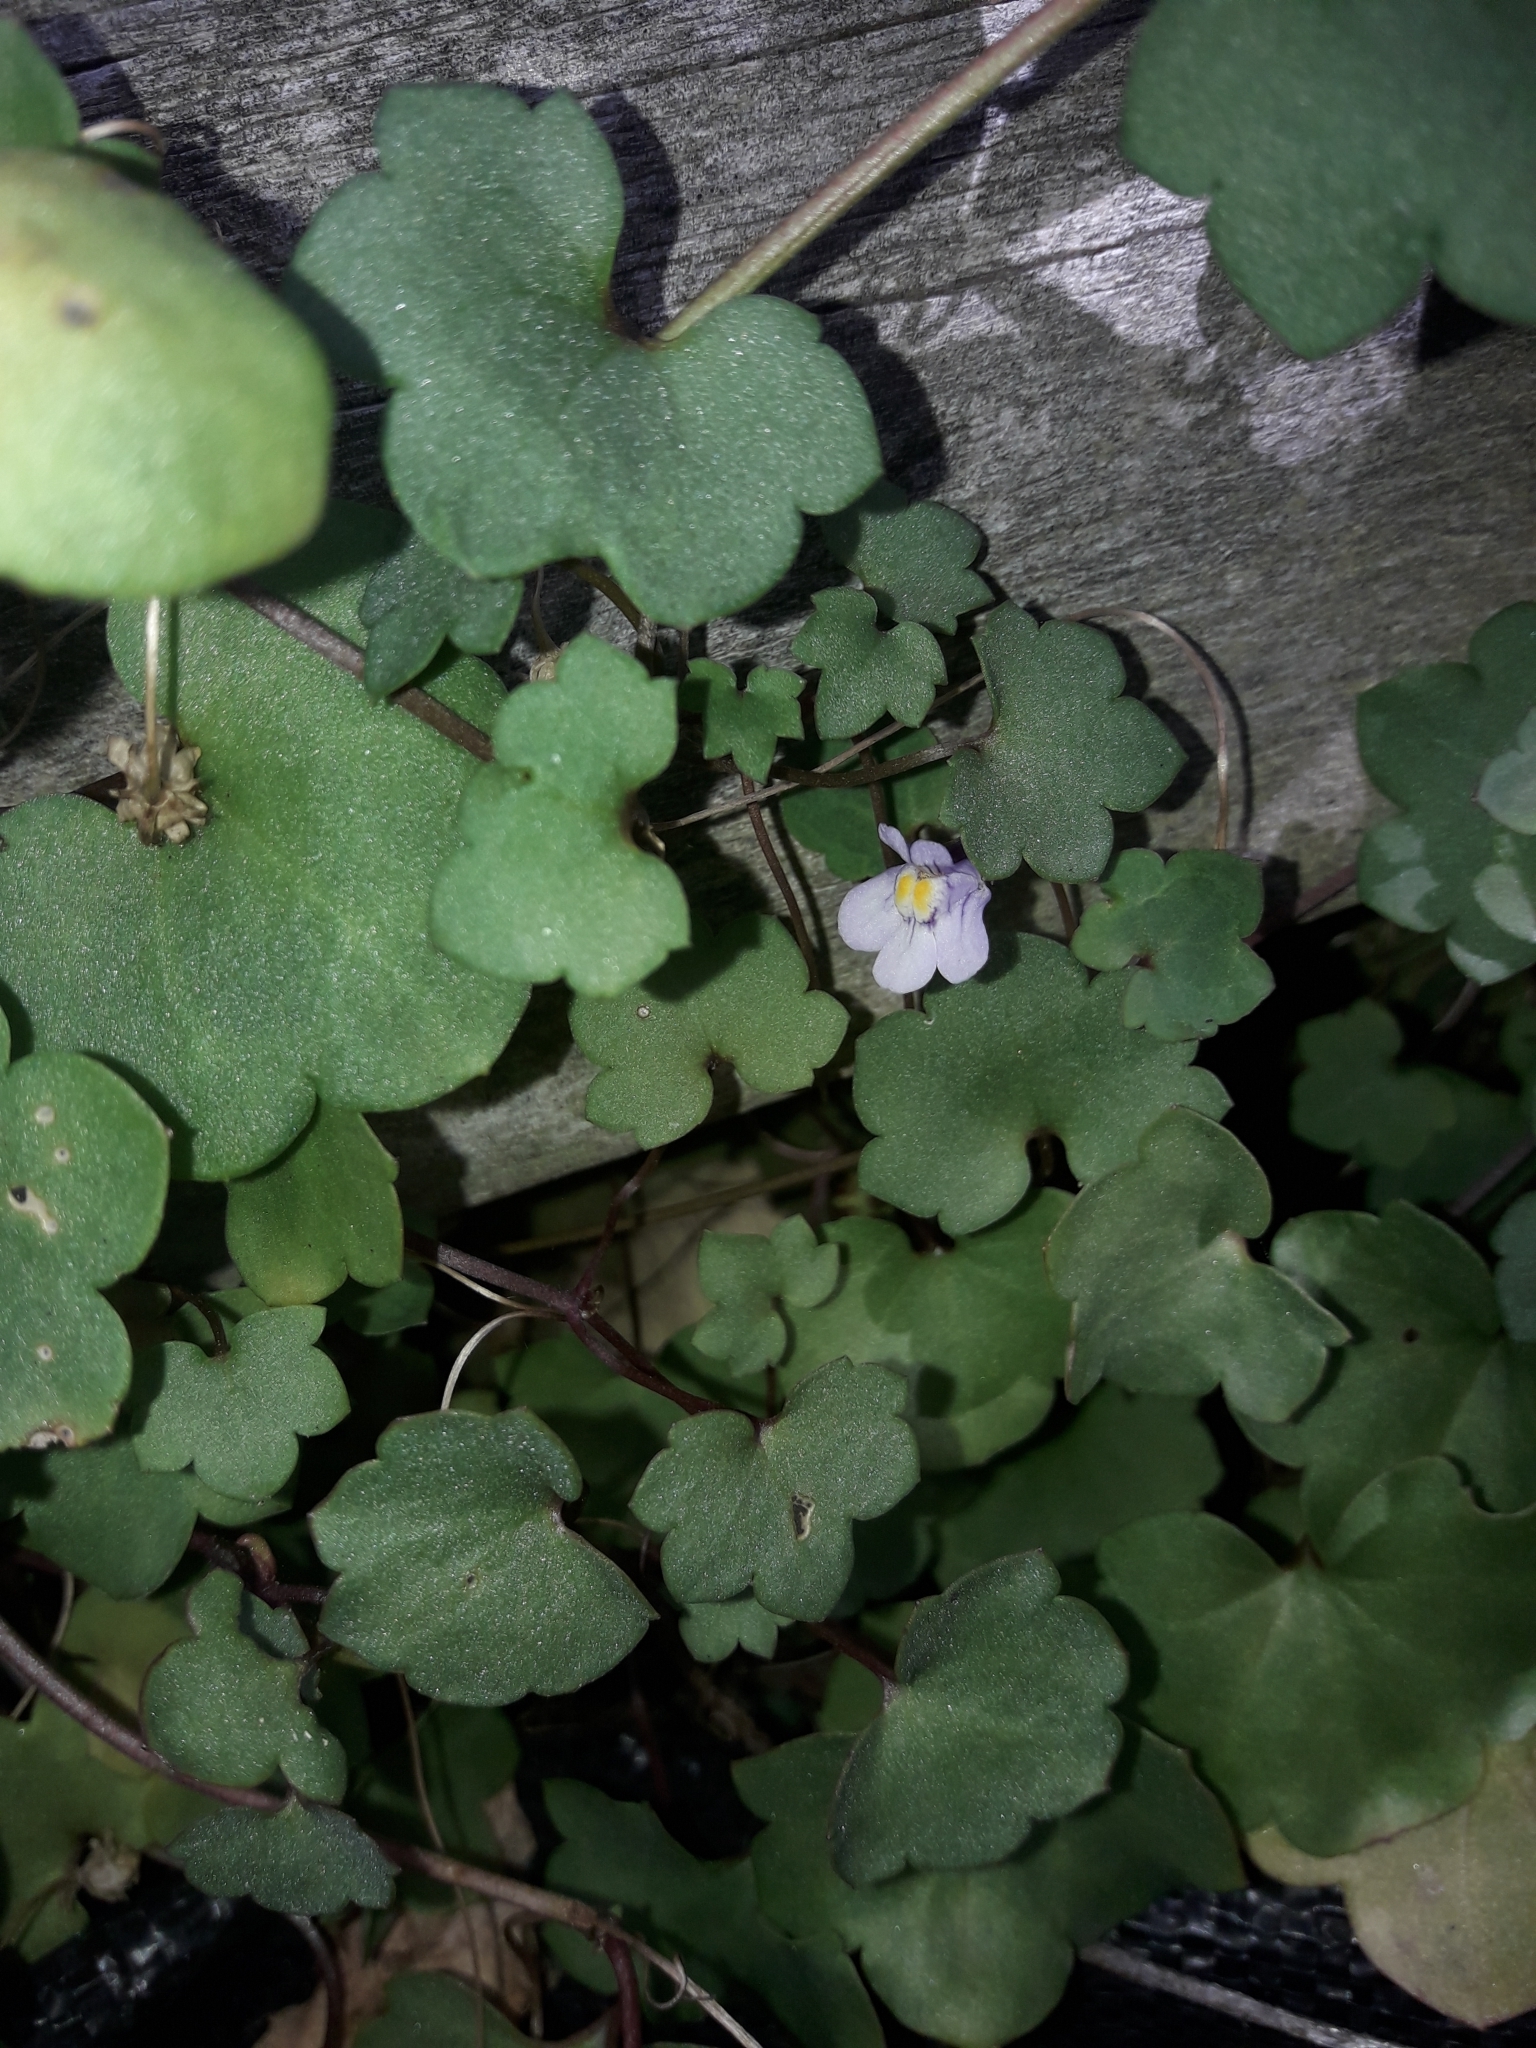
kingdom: Plantae
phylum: Tracheophyta
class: Magnoliopsida
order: Lamiales
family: Plantaginaceae
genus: Cymbalaria
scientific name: Cymbalaria muralis
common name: Ivy-leaved toadflax
